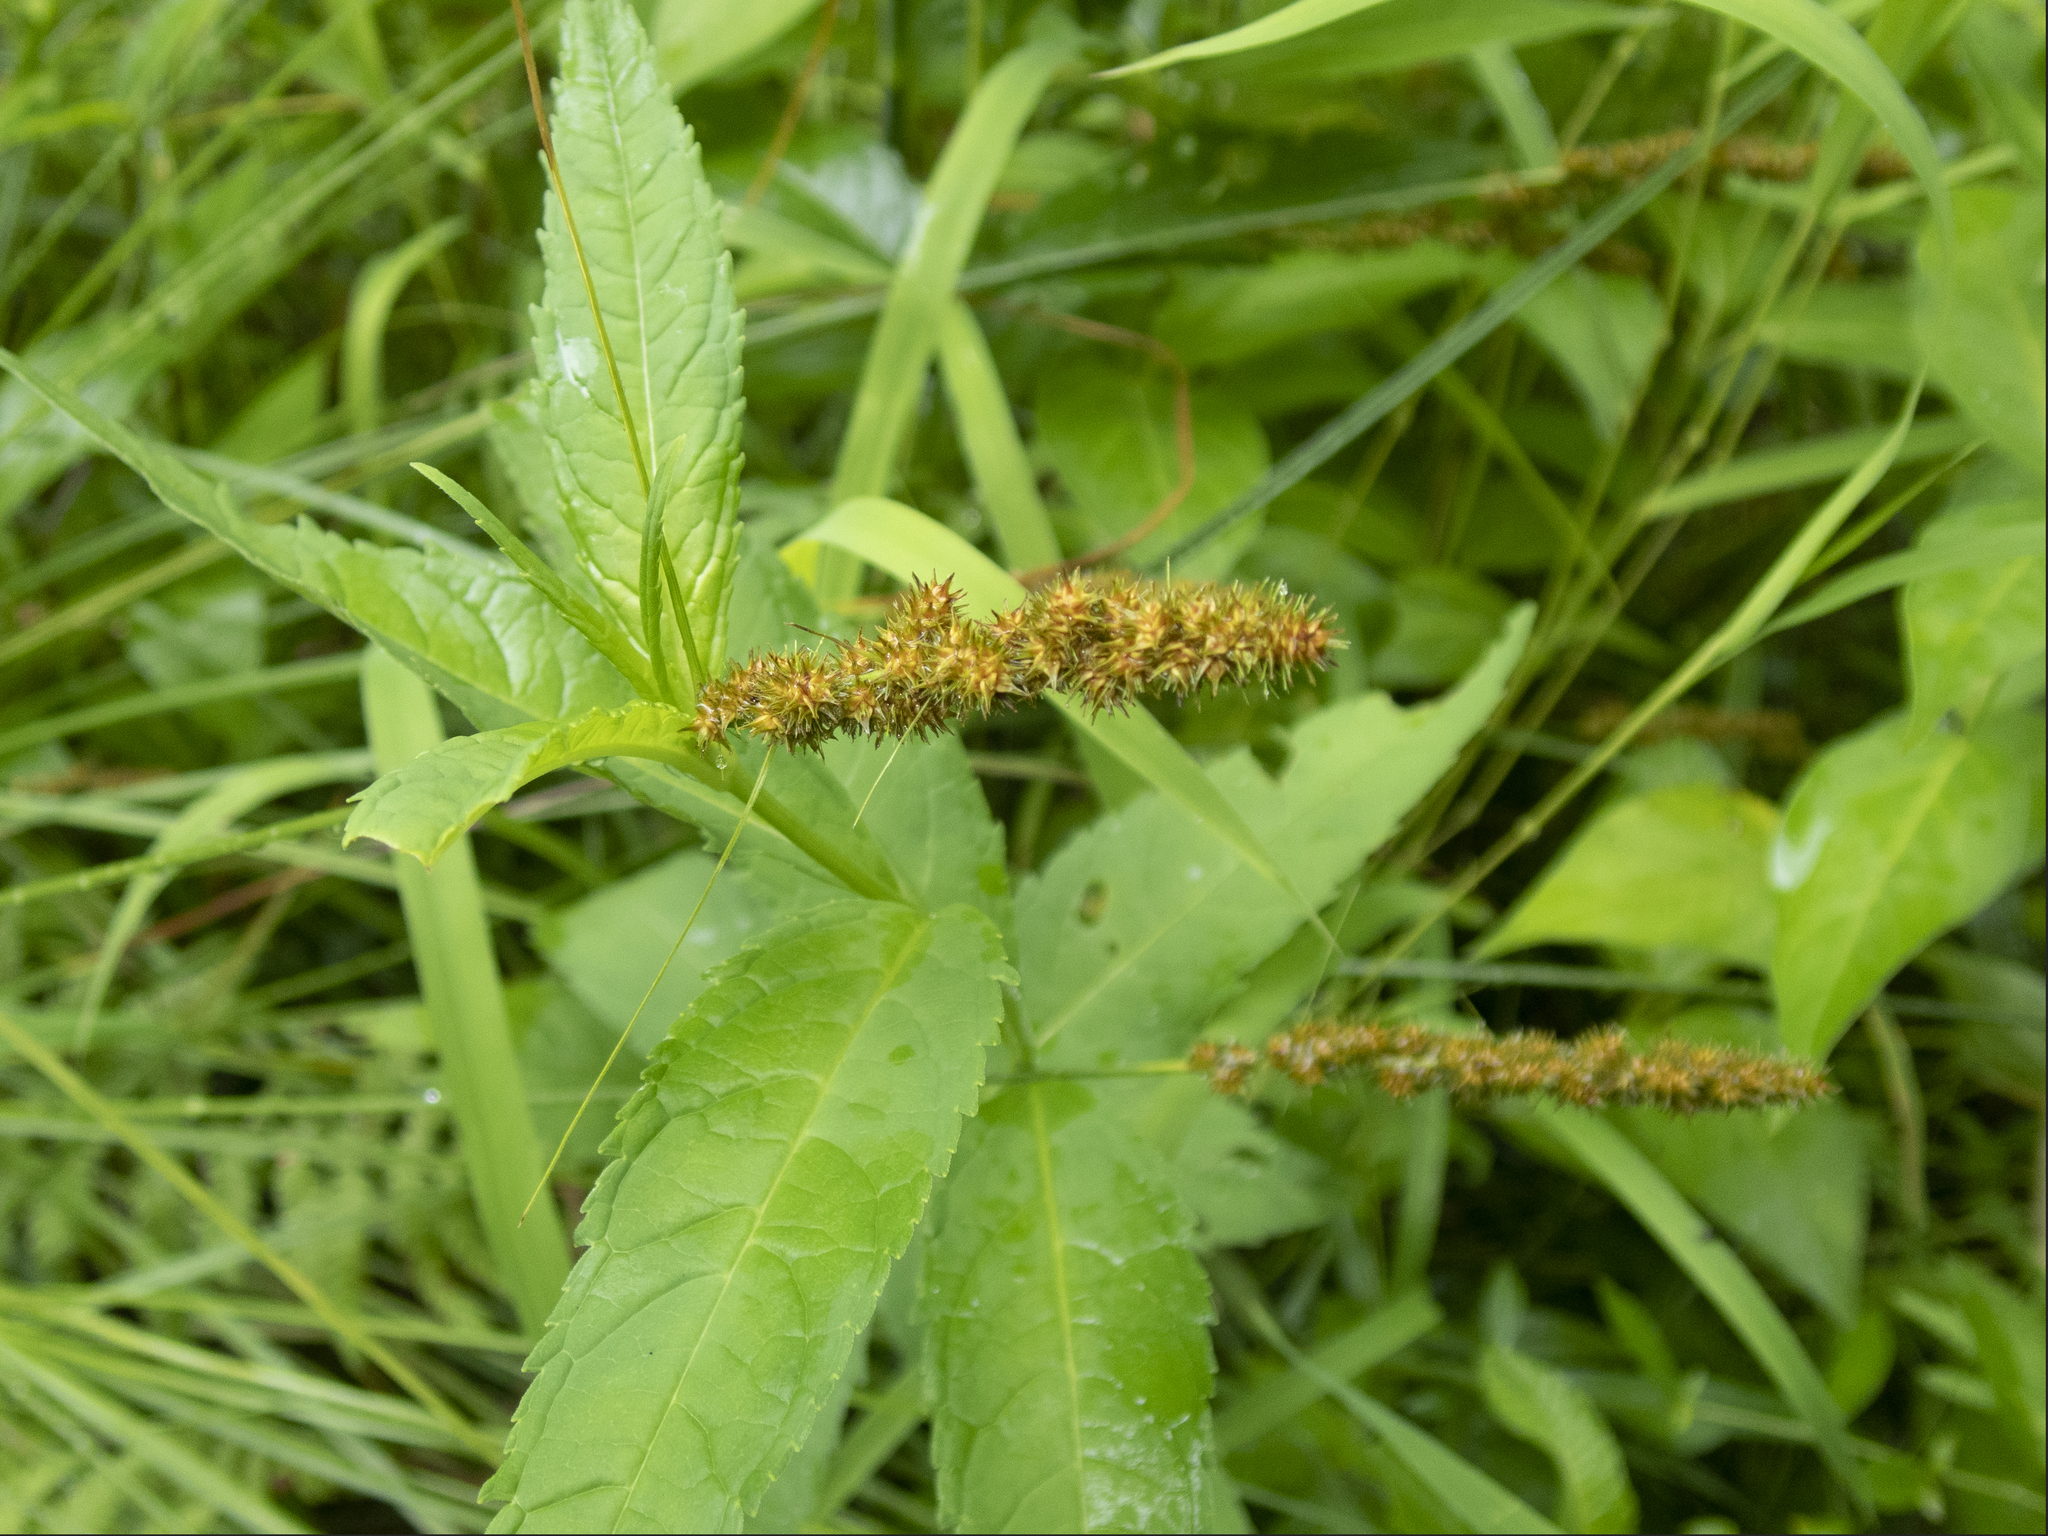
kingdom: Plantae
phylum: Tracheophyta
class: Liliopsida
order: Poales
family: Cyperaceae
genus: Carex
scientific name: Carex vulpinoidea
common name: American fox-sedge
